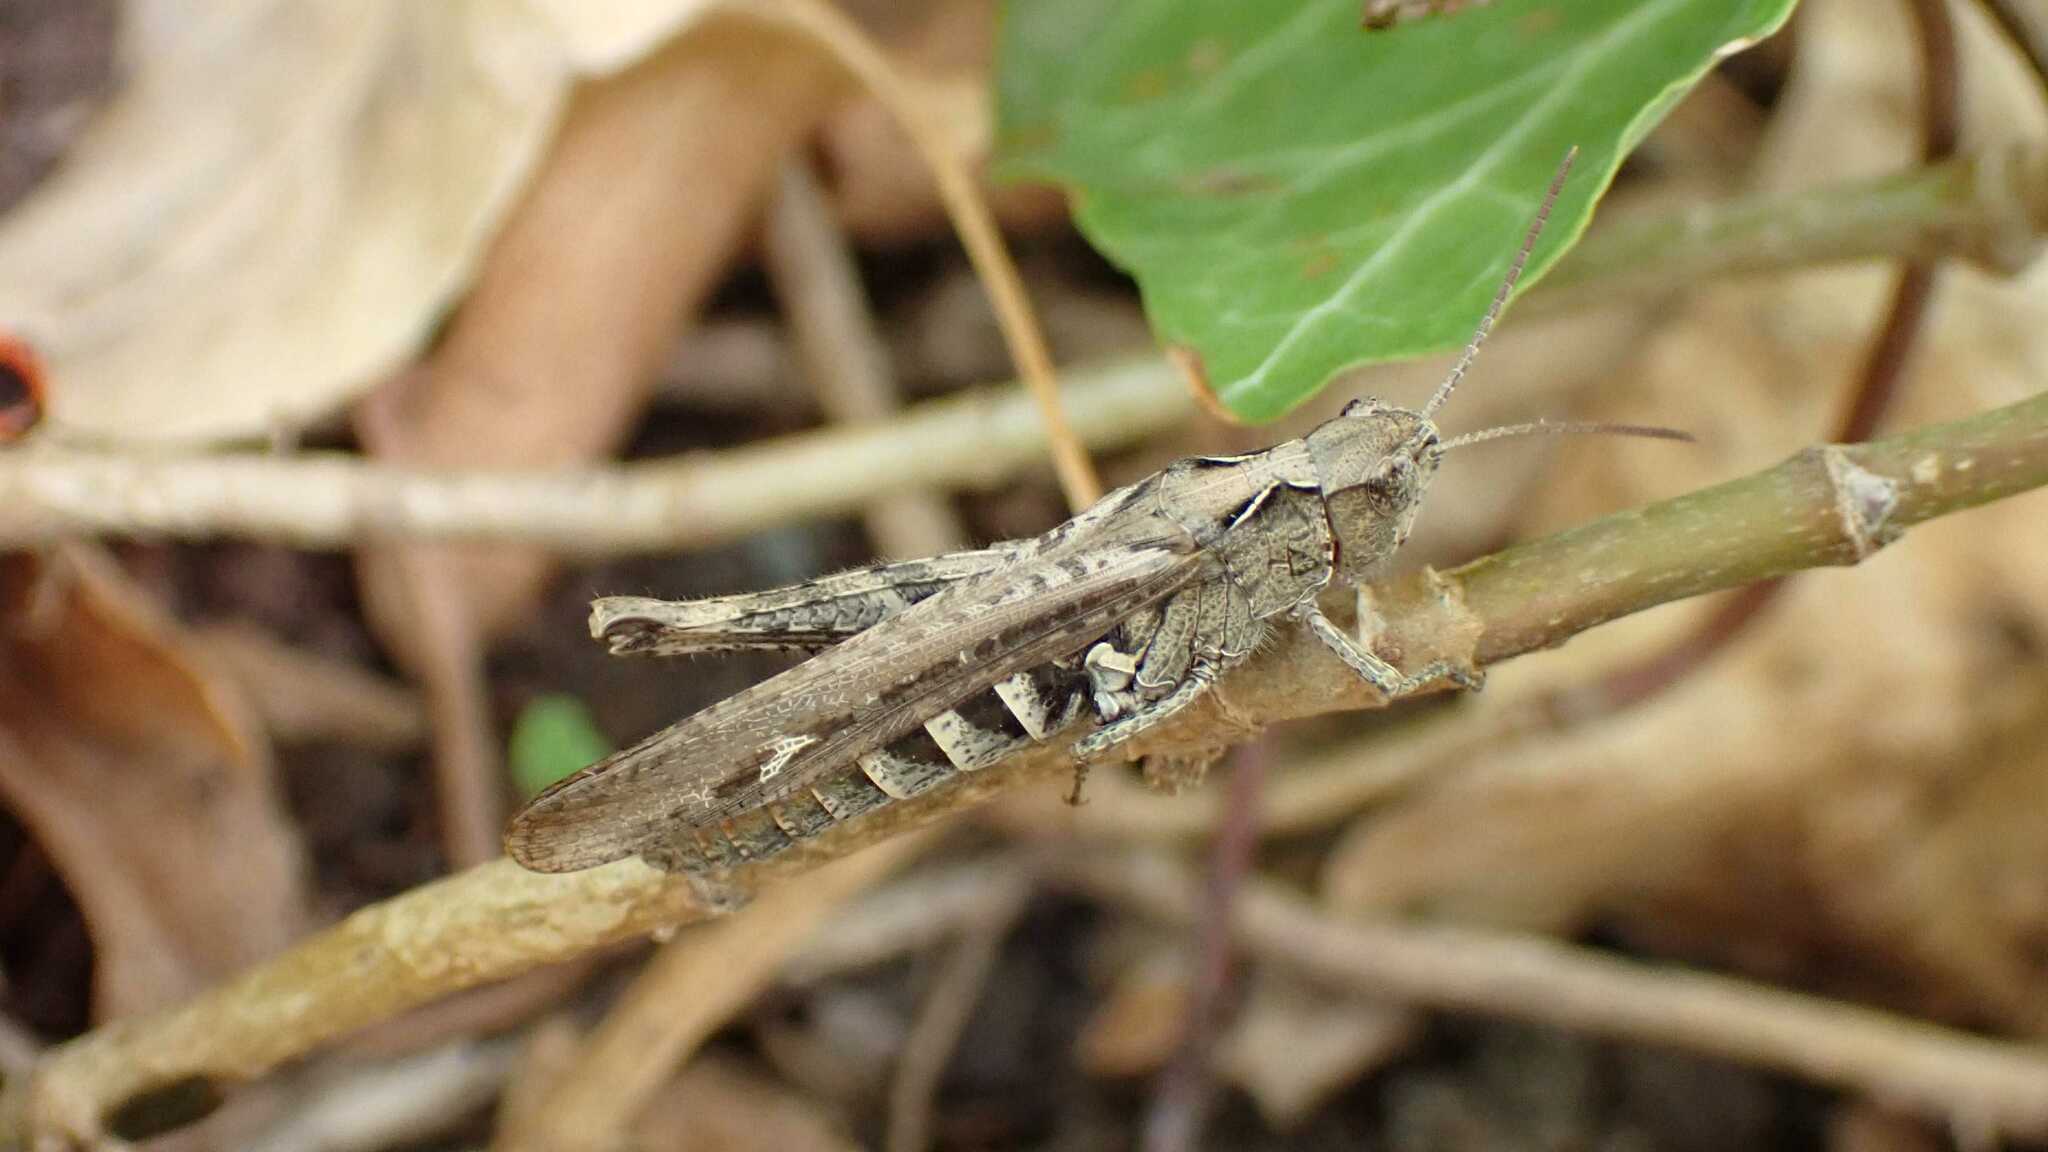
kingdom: Animalia
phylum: Arthropoda
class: Insecta
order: Orthoptera
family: Acrididae
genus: Glyptobothrus
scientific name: Glyptobothrus
